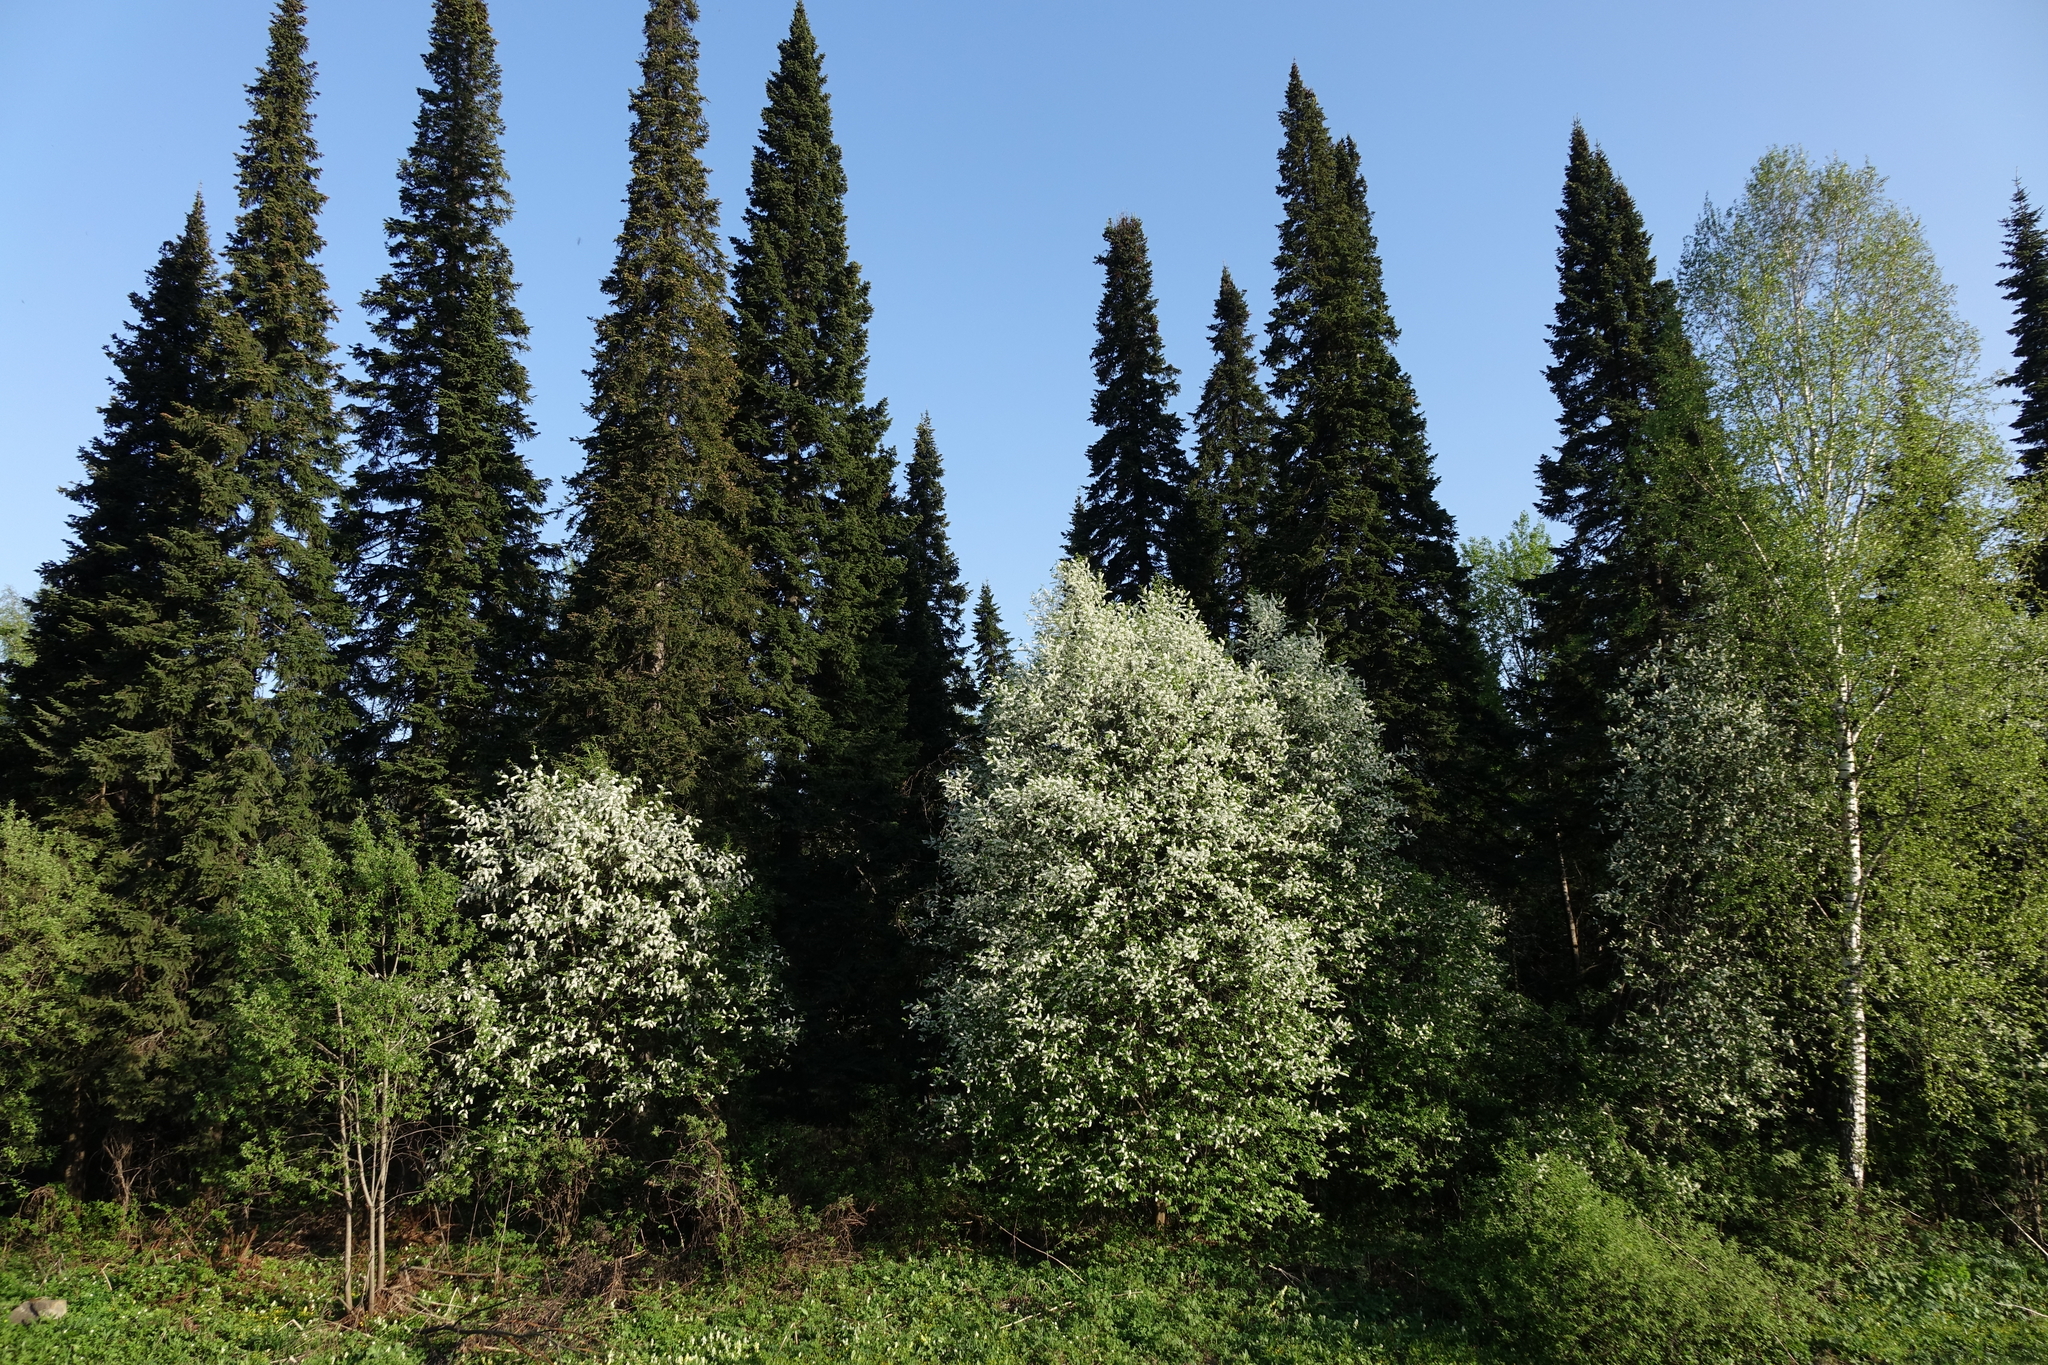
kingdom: Plantae
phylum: Tracheophyta
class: Magnoliopsida
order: Rosales
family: Rosaceae
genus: Prunus
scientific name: Prunus padus
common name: Bird cherry
